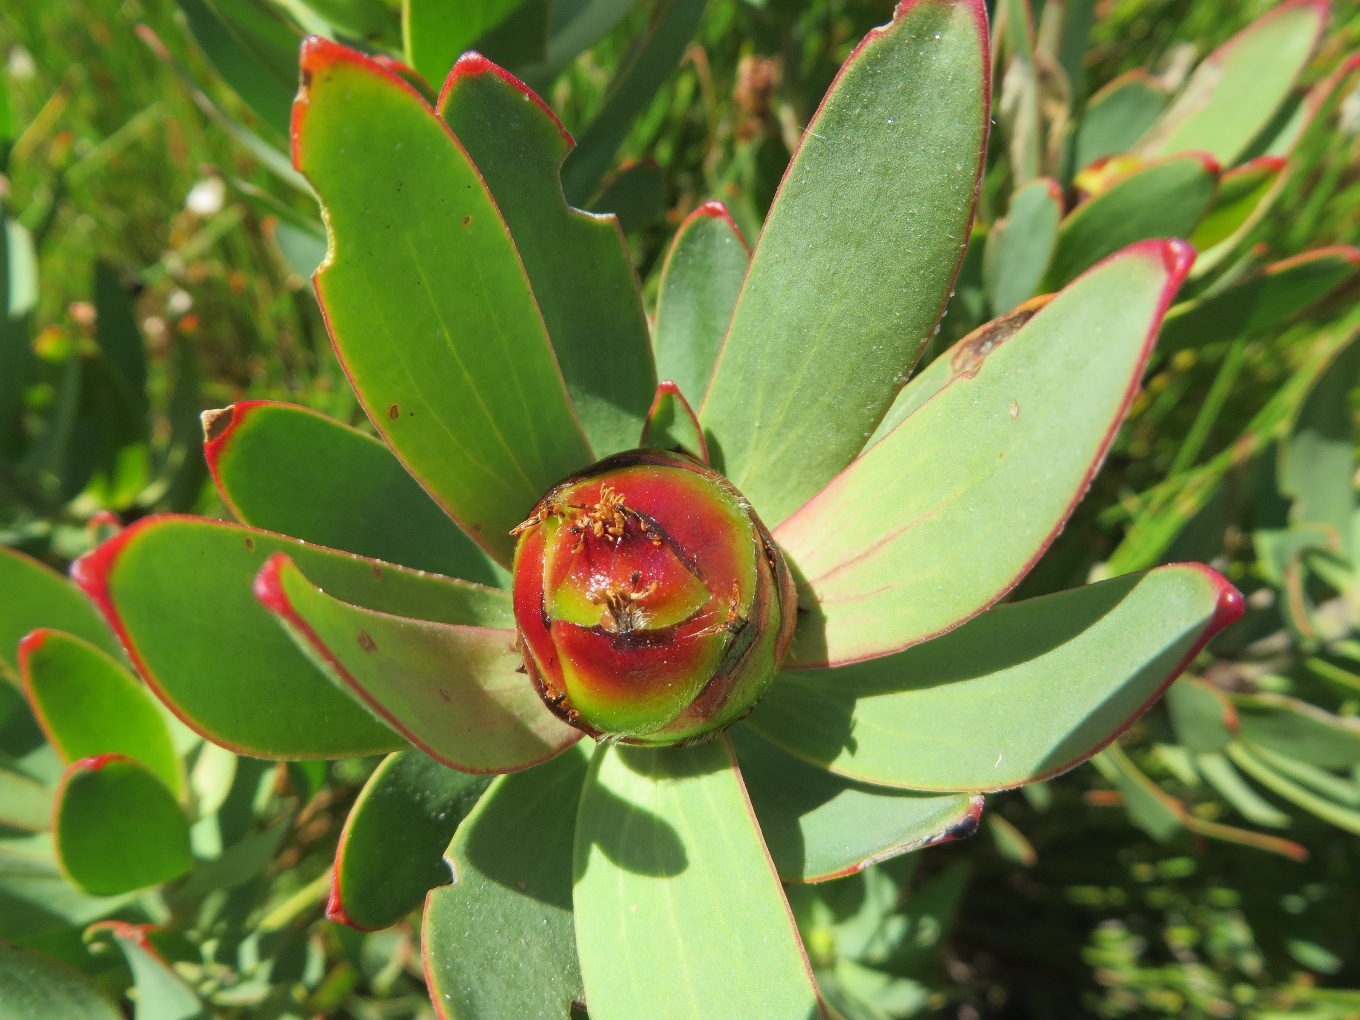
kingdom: Plantae
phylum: Tracheophyta
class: Magnoliopsida
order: Proteales
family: Proteaceae
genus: Leucadendron
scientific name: Leucadendron sessile
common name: Western sunbush
